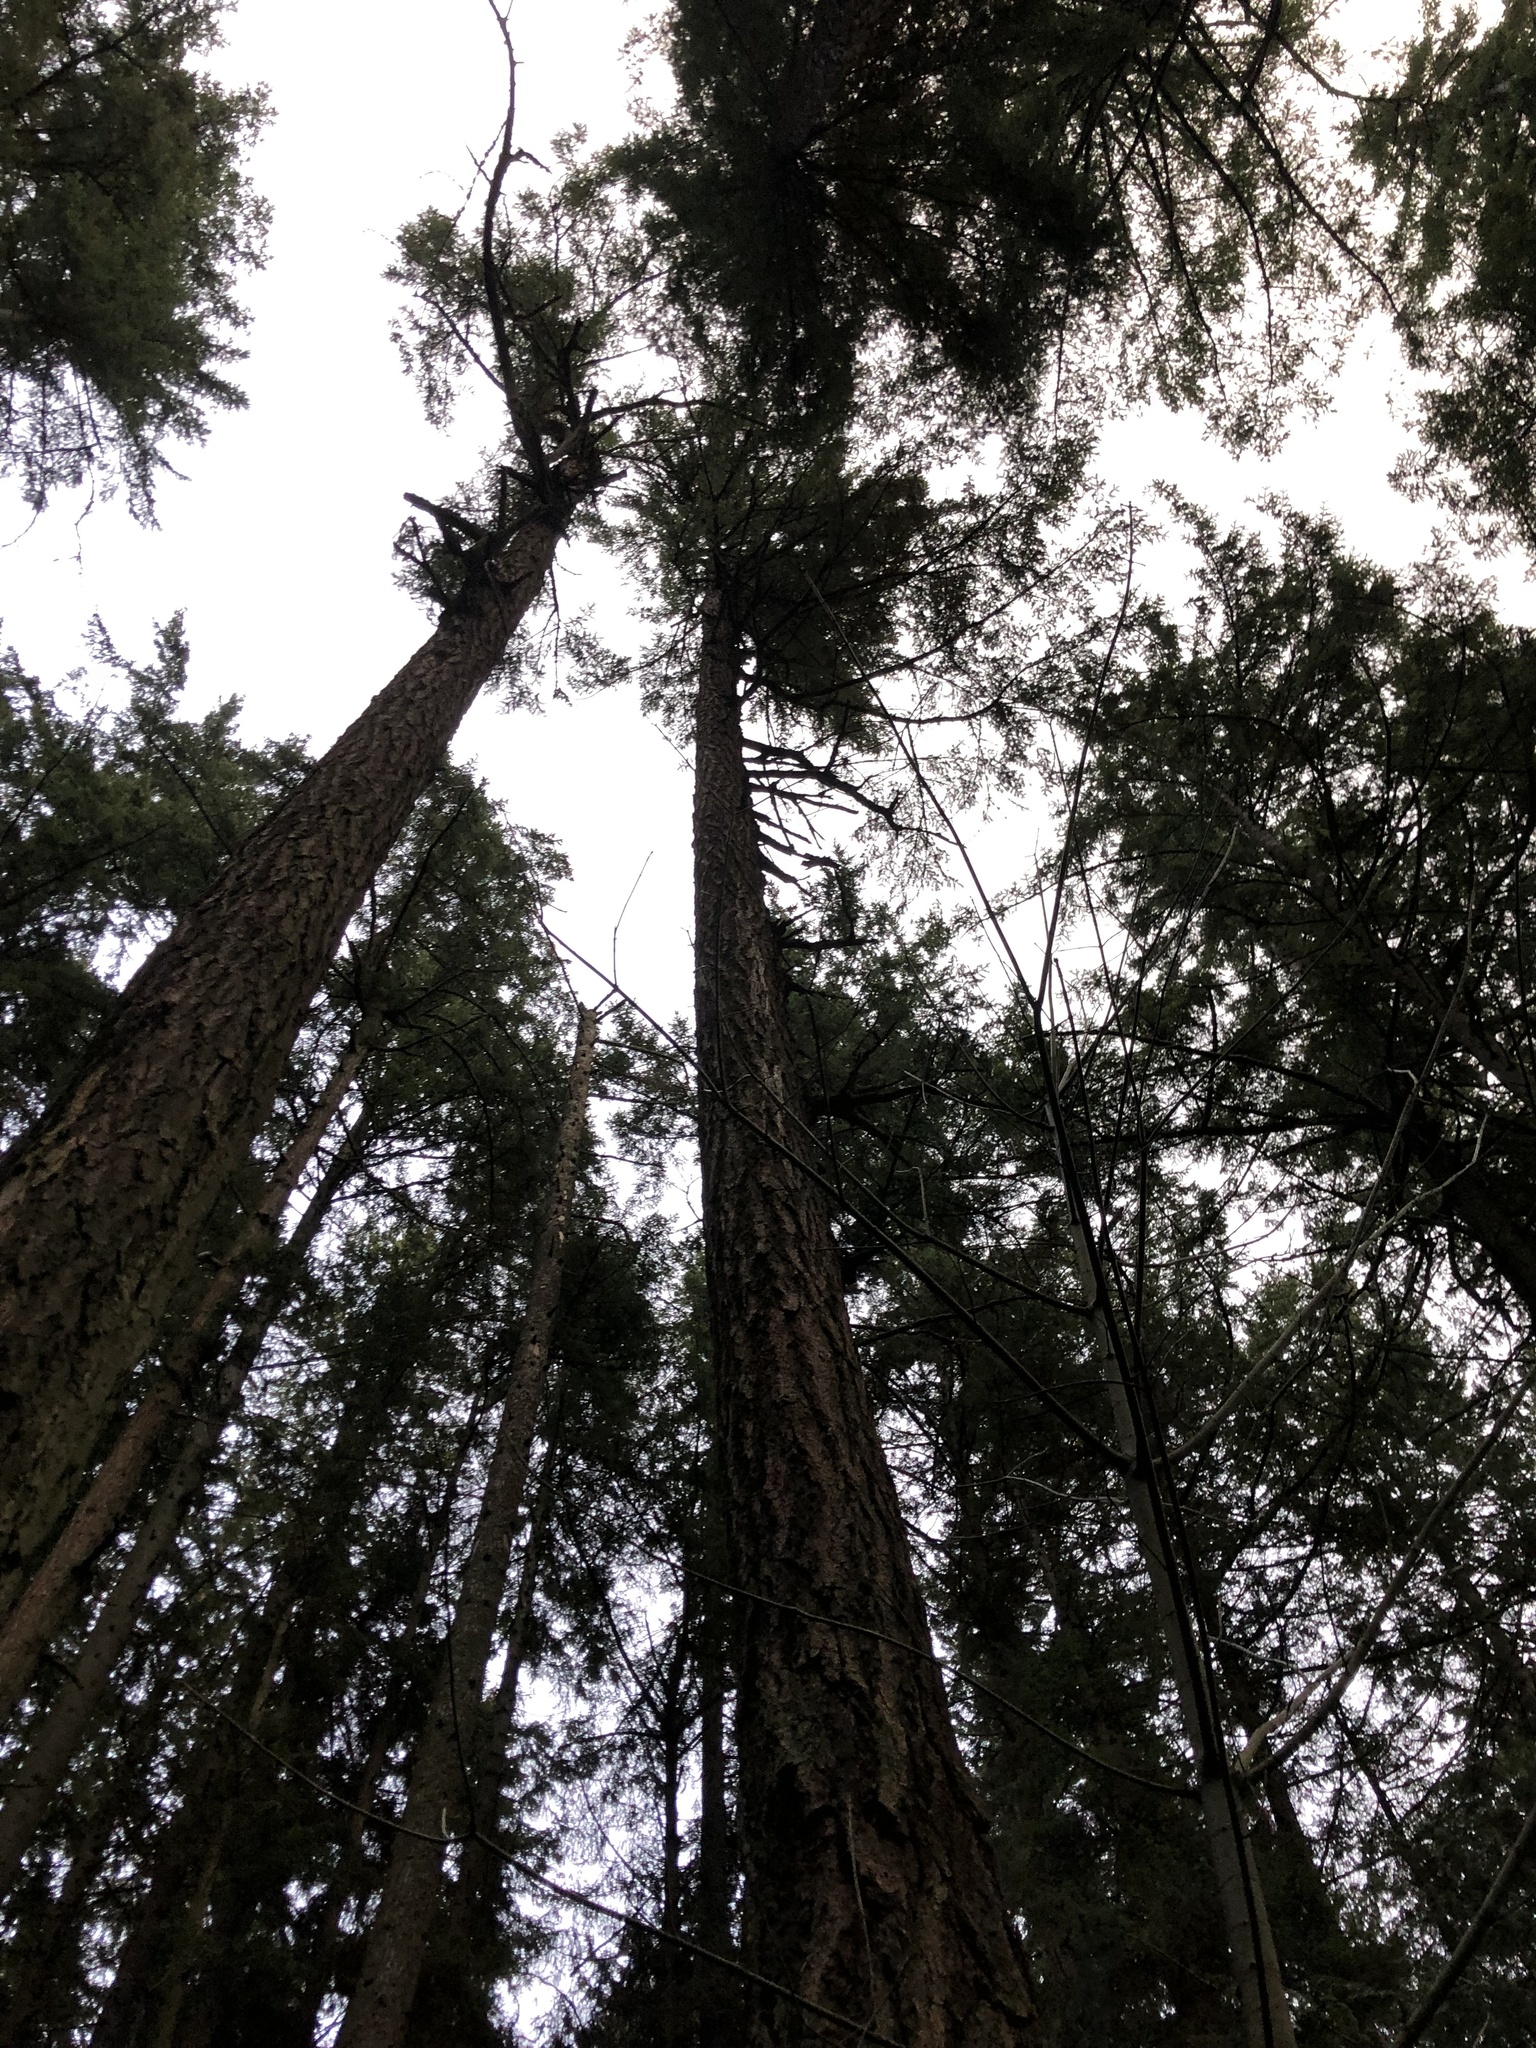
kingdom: Plantae
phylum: Tracheophyta
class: Pinopsida
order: Pinales
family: Pinaceae
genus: Pseudotsuga
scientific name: Pseudotsuga menziesii
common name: Douglas fir
